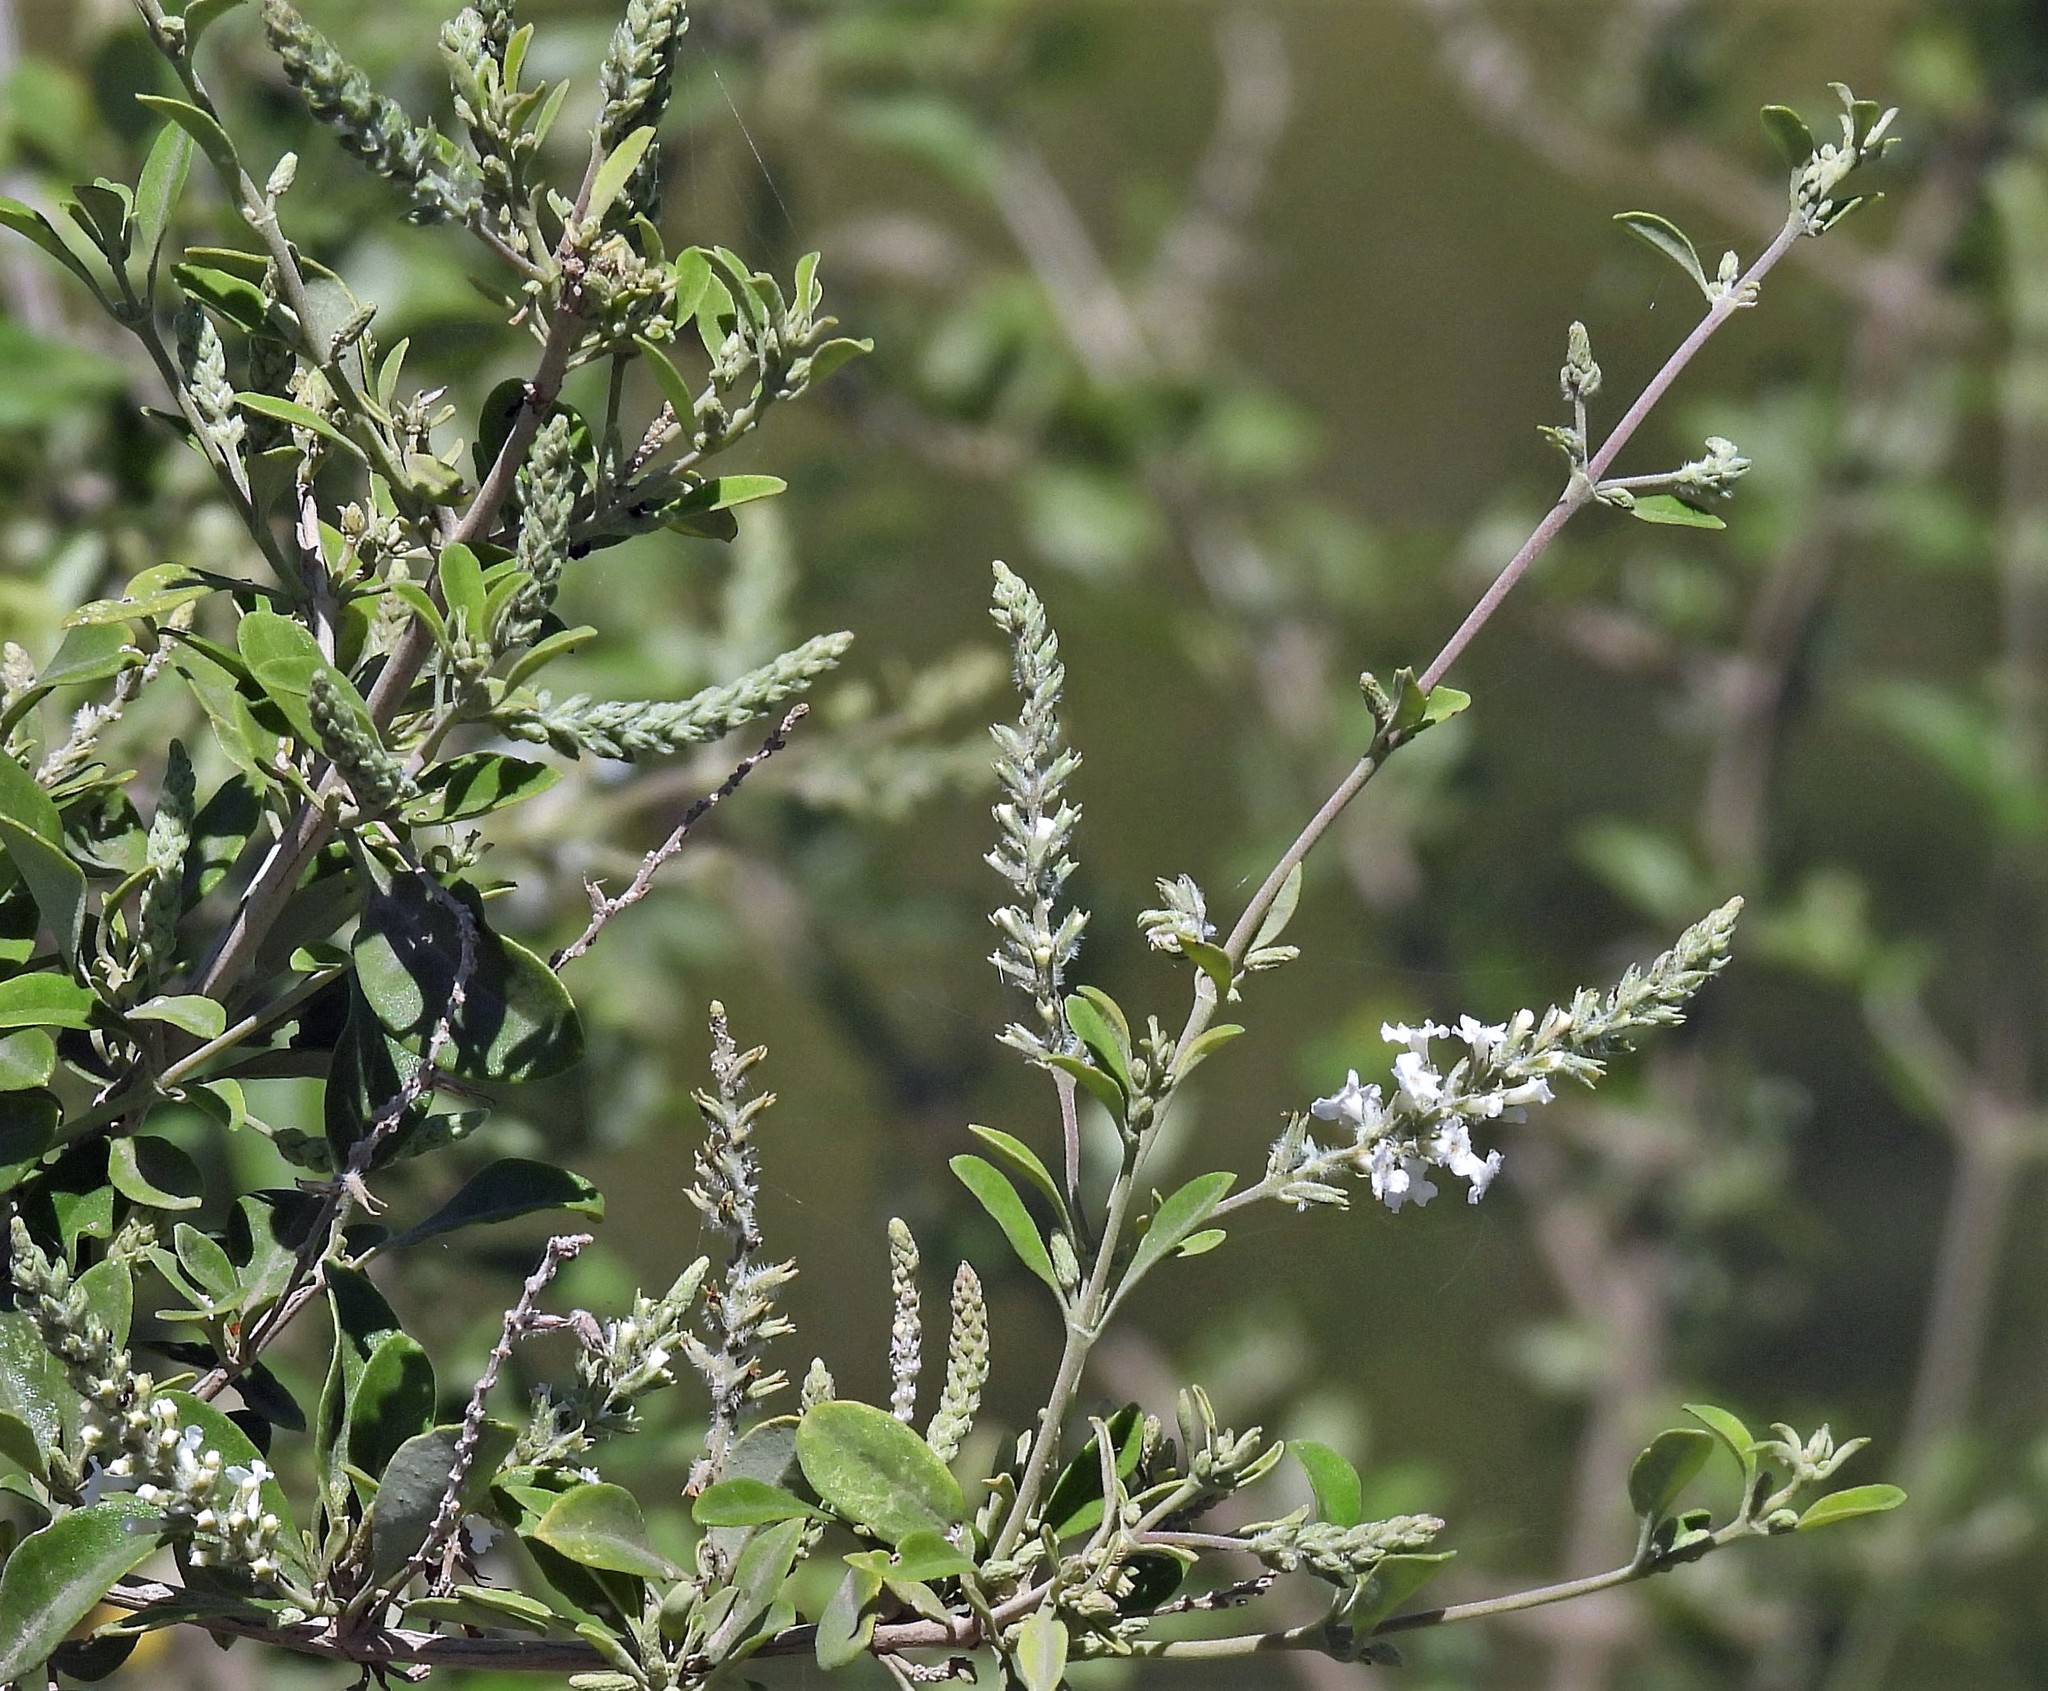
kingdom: Plantae
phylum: Tracheophyta
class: Magnoliopsida
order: Lamiales
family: Verbenaceae
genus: Aloysia
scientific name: Aloysia gratissima
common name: Common bee-brush
